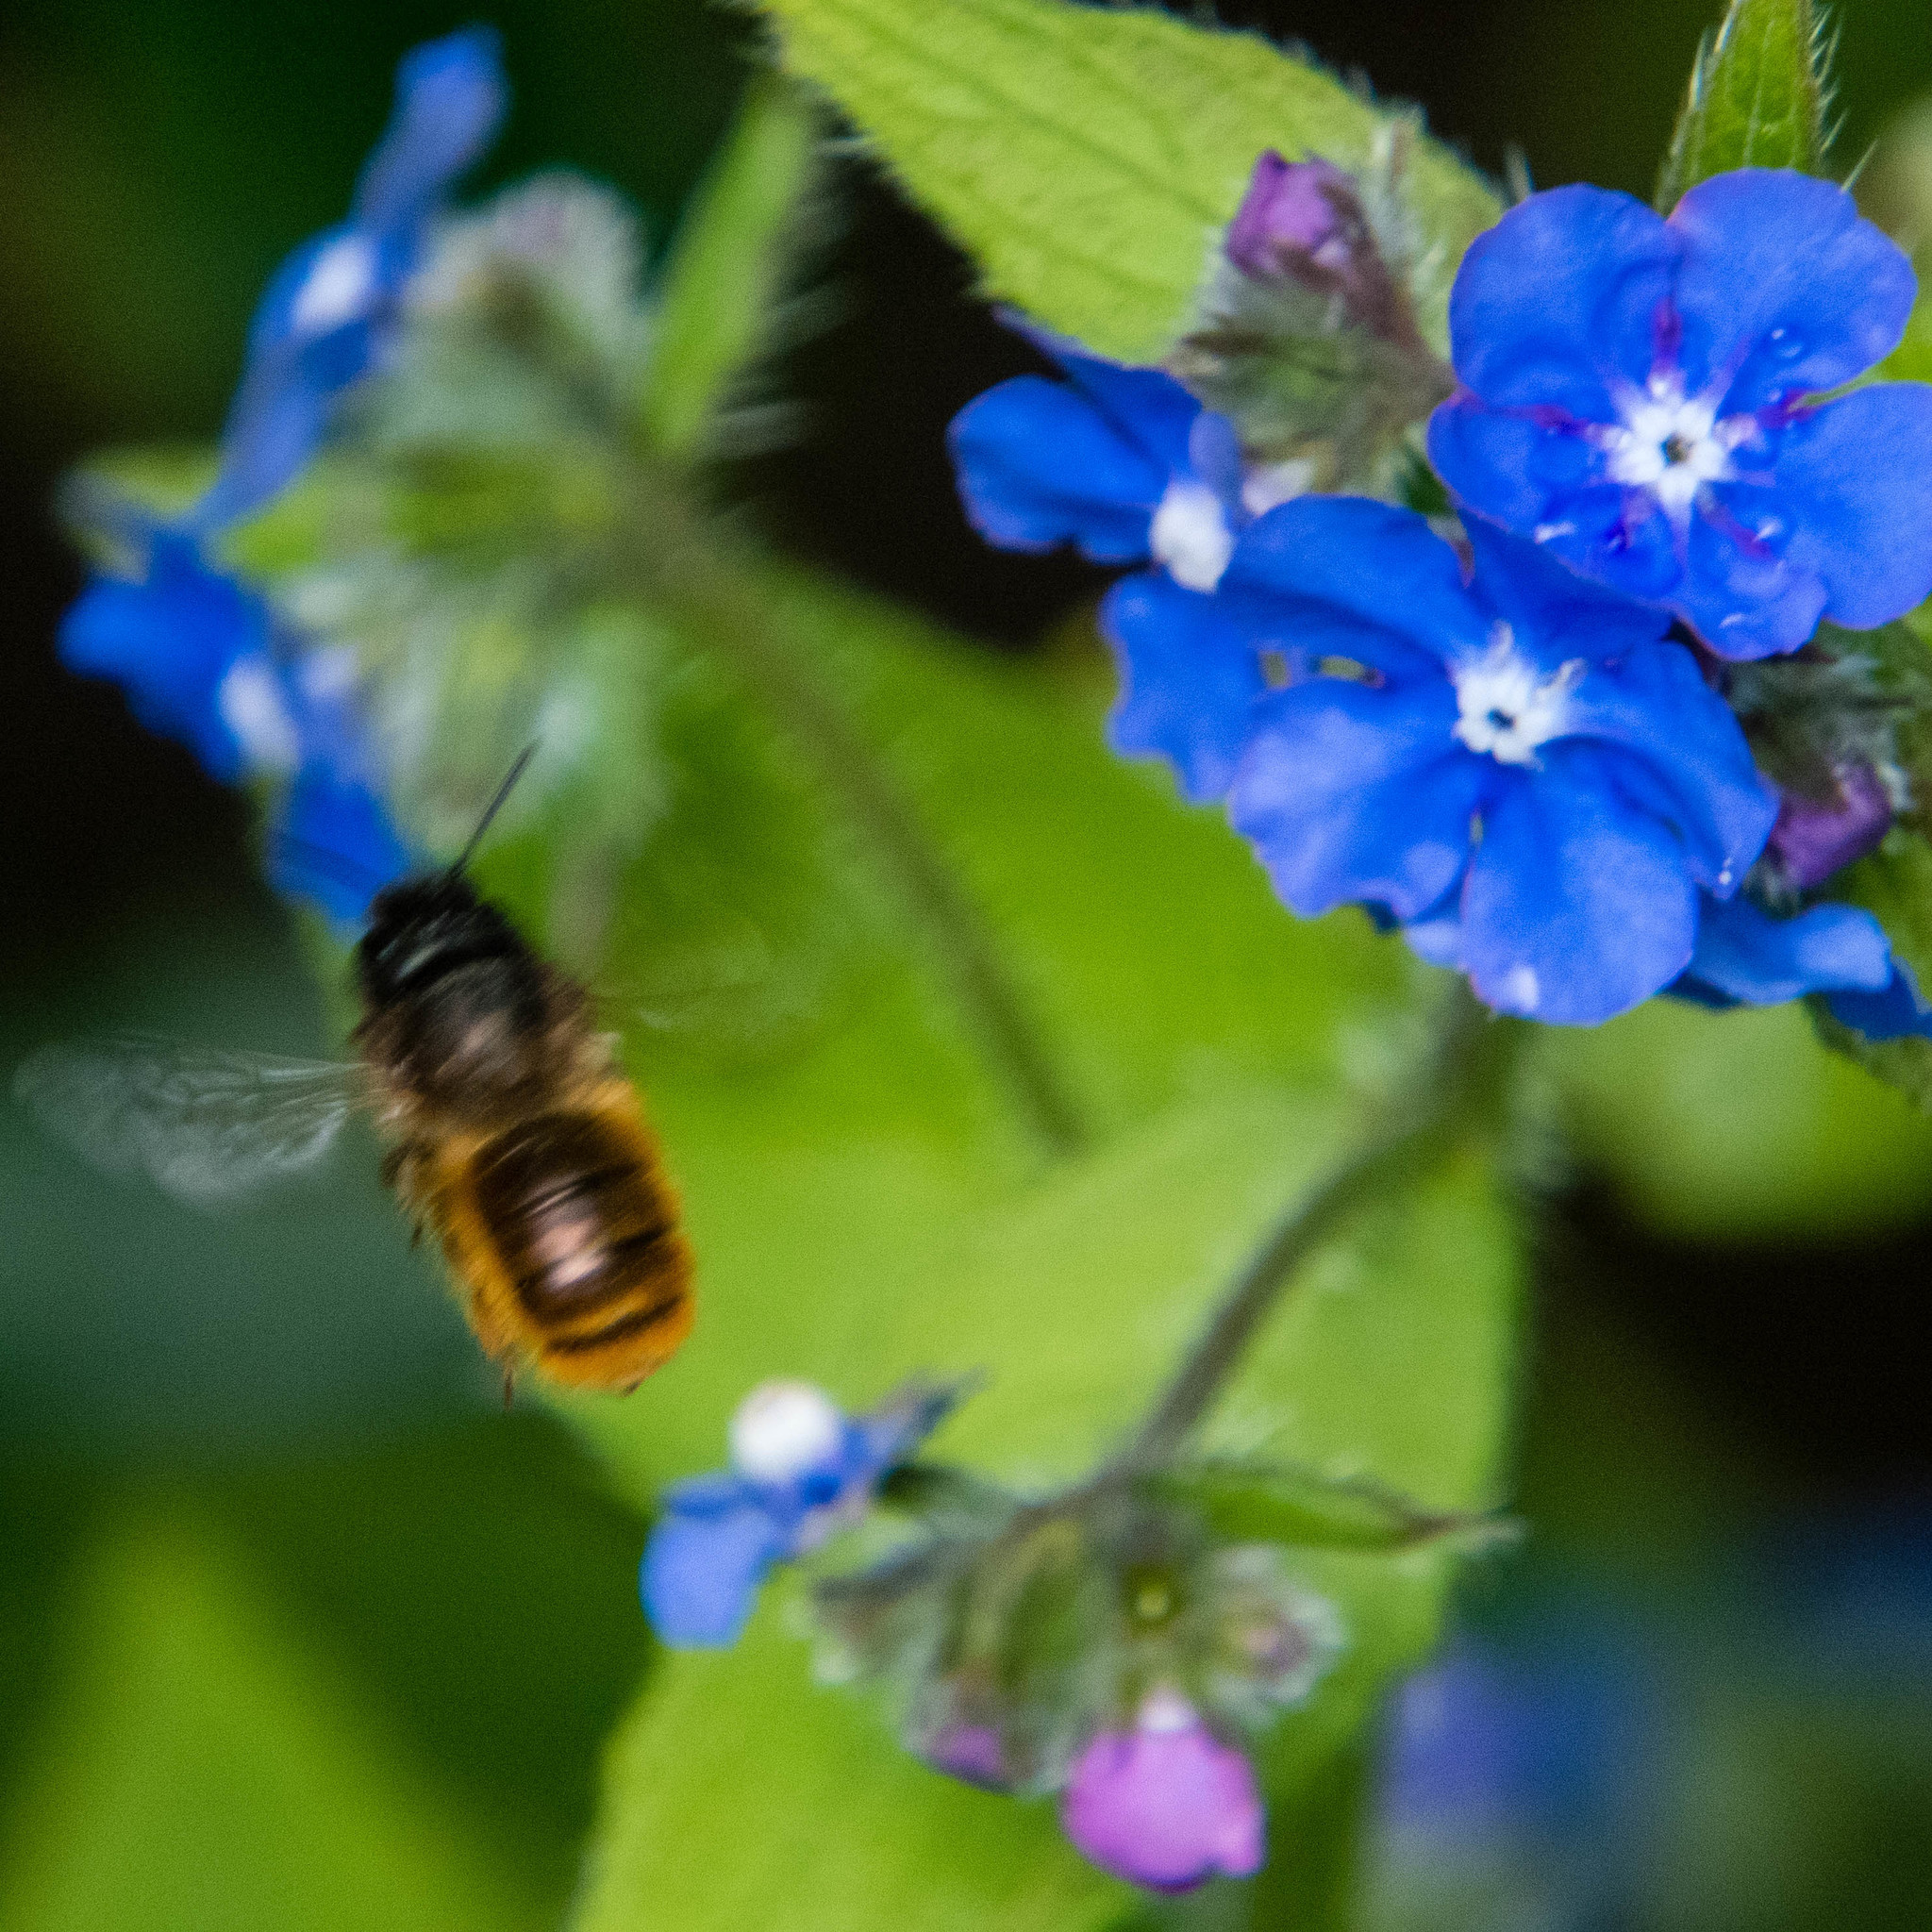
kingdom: Animalia
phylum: Arthropoda
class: Insecta
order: Hymenoptera
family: Megachilidae
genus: Osmia
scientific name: Osmia bicornis
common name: Red mason bee
